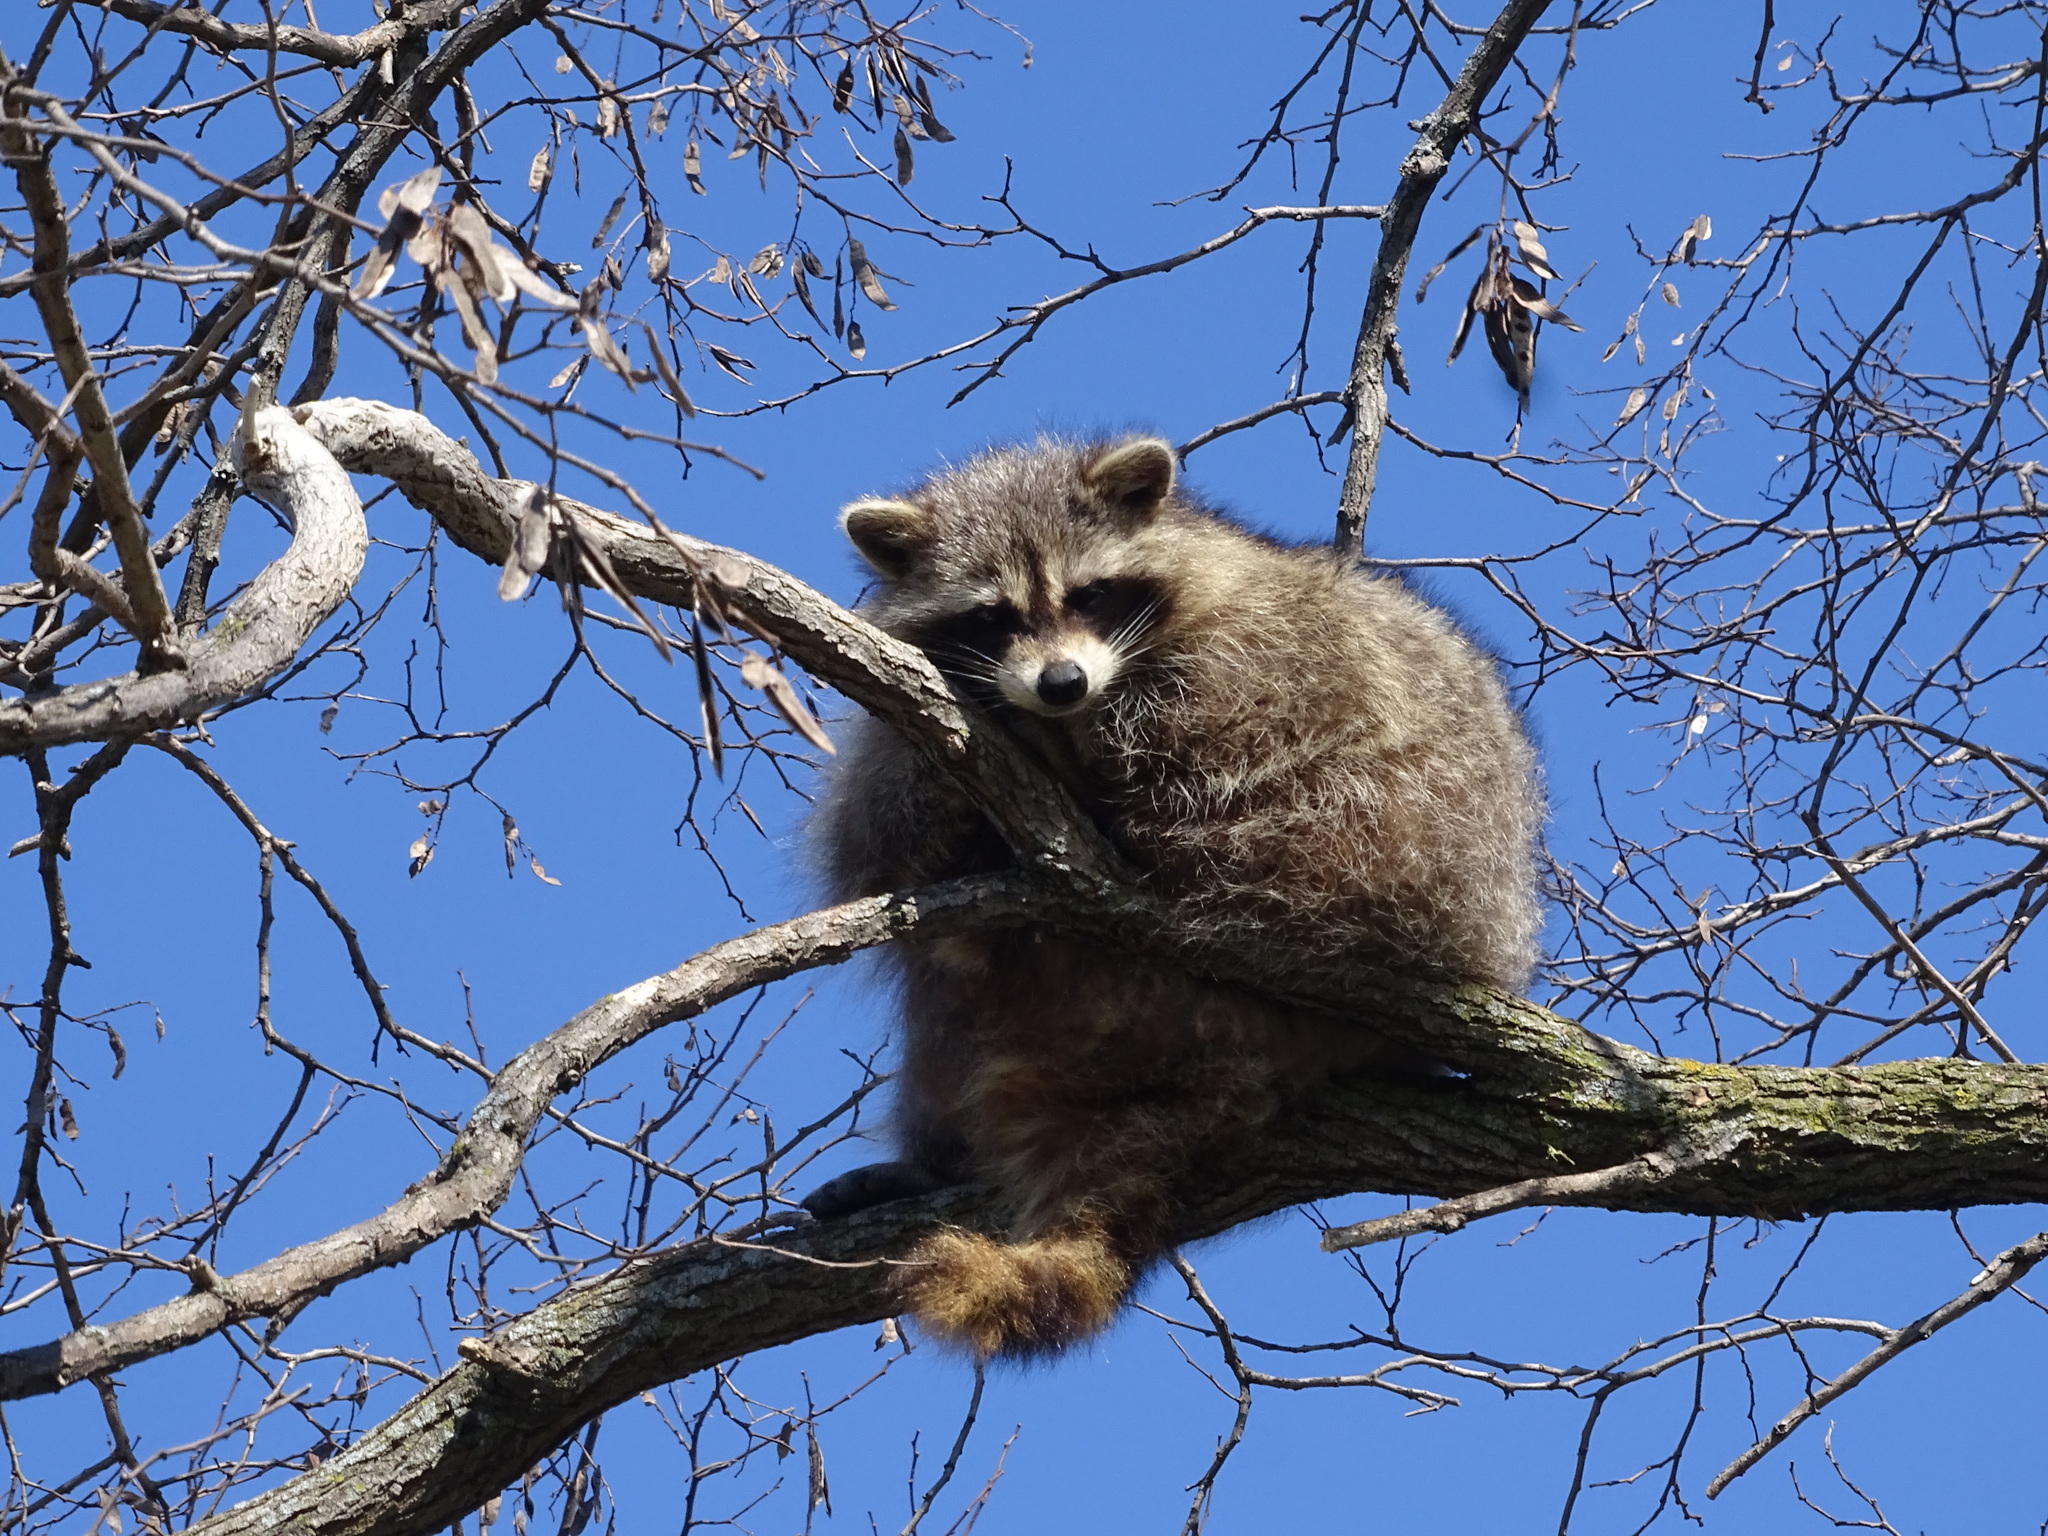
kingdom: Animalia
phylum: Chordata
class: Mammalia
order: Carnivora
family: Procyonidae
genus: Procyon
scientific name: Procyon lotor
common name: Raccoon
